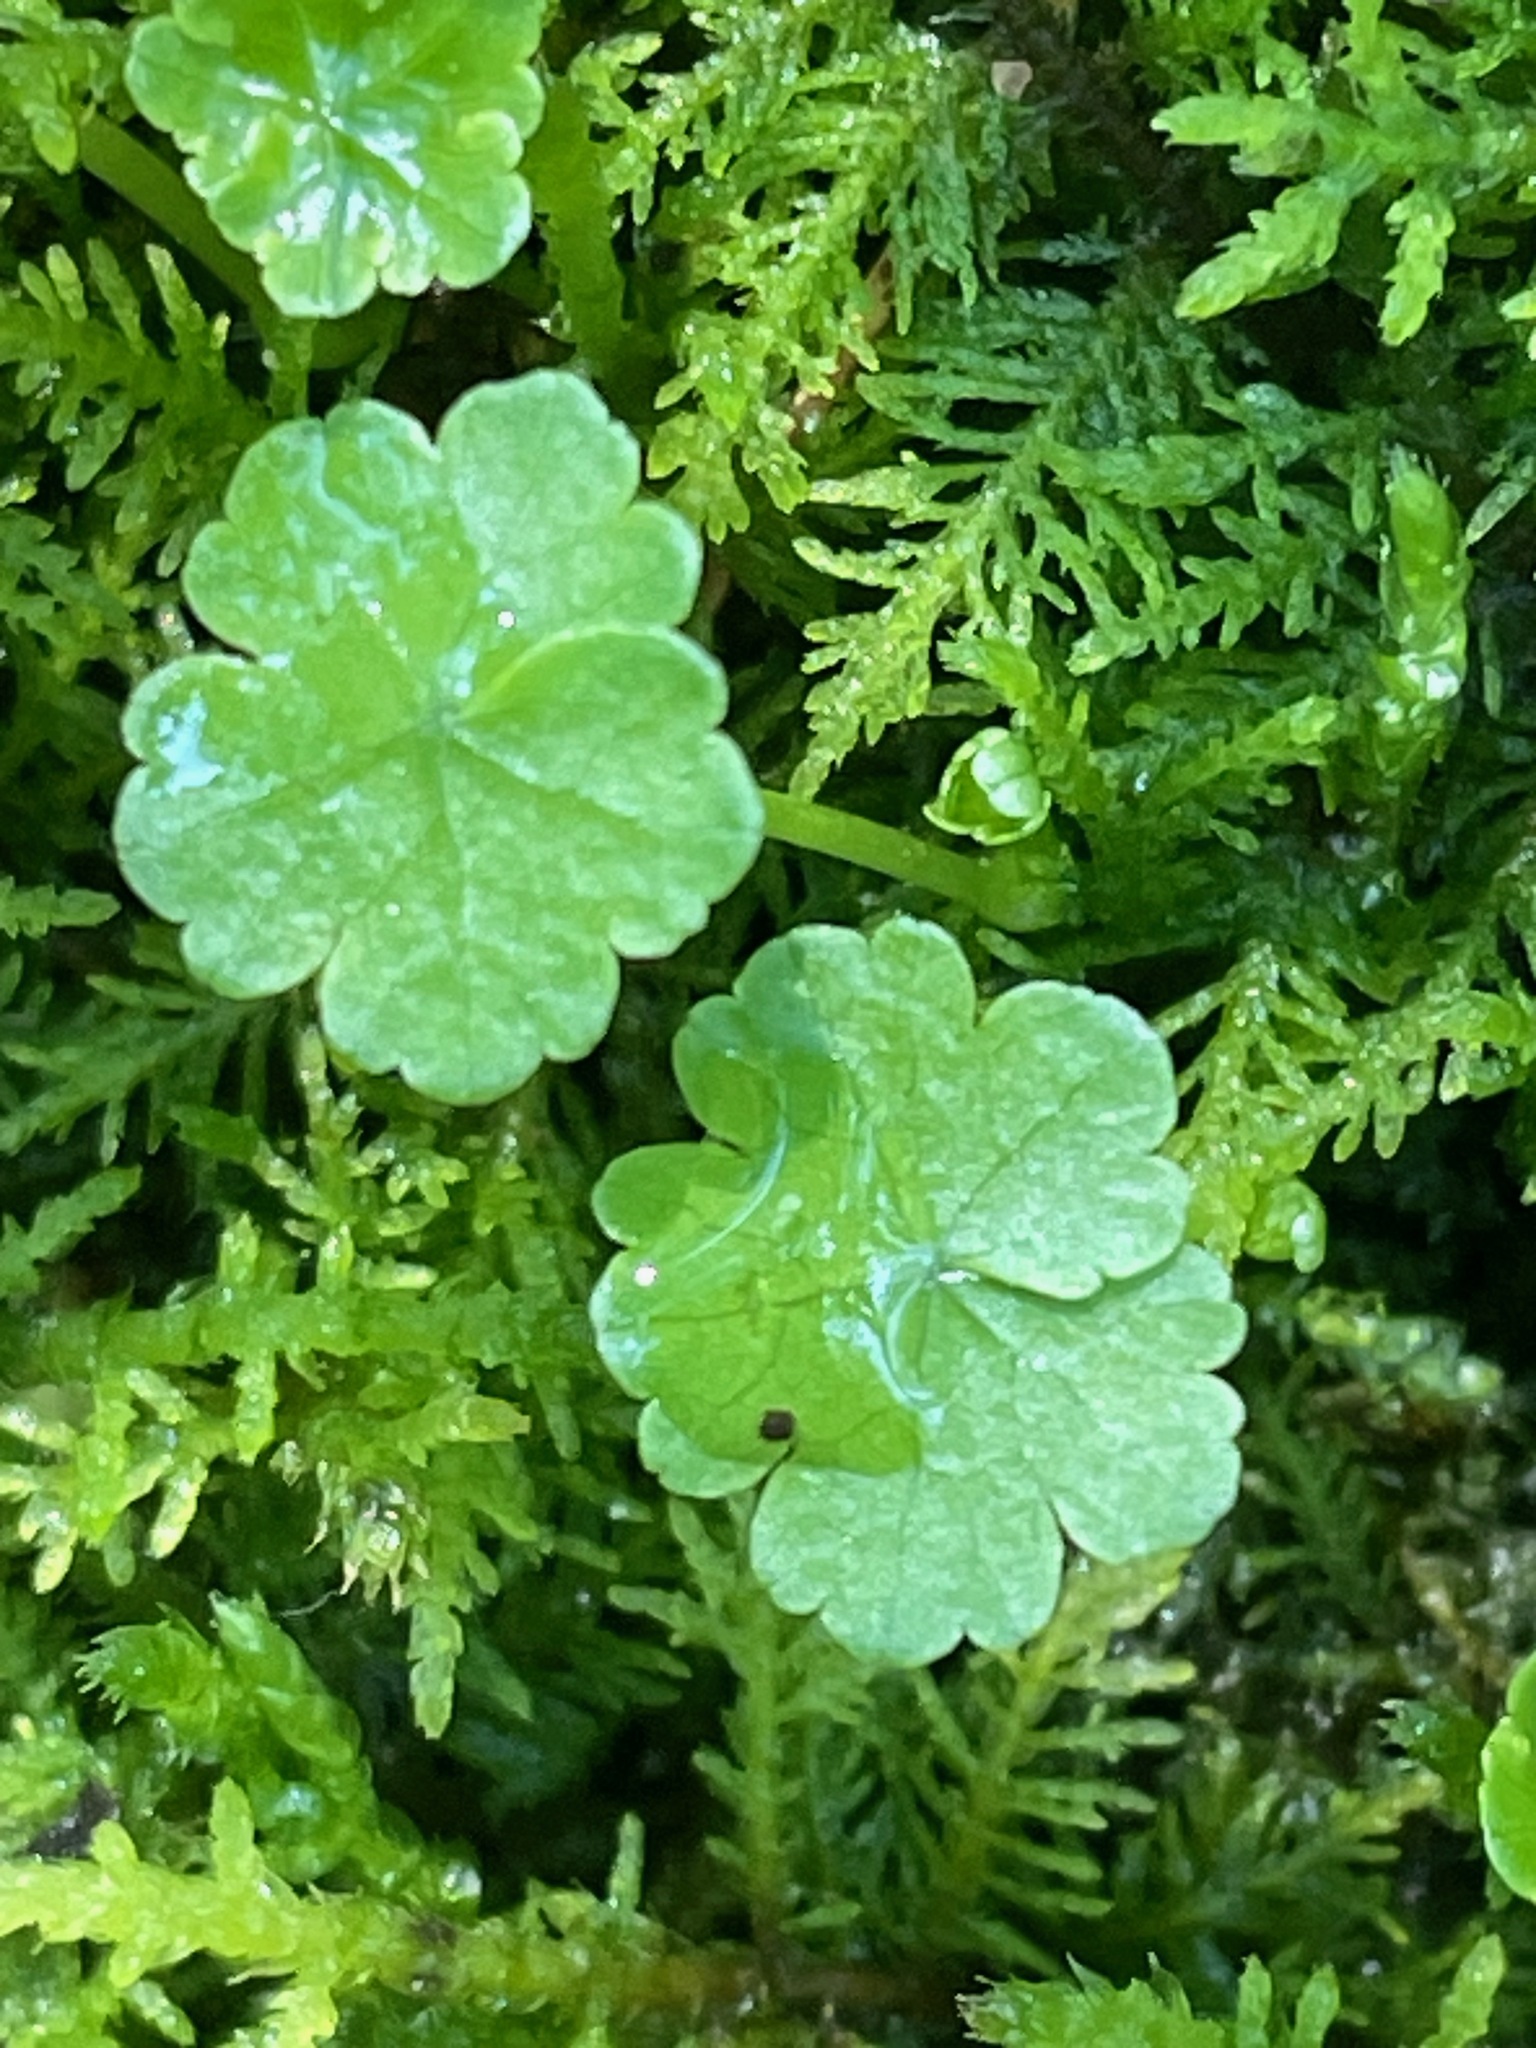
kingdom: Plantae
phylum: Tracheophyta
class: Magnoliopsida
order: Apiales
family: Araliaceae
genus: Hydrocotyle
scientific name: Hydrocotyle americana
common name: American water-pennywort
